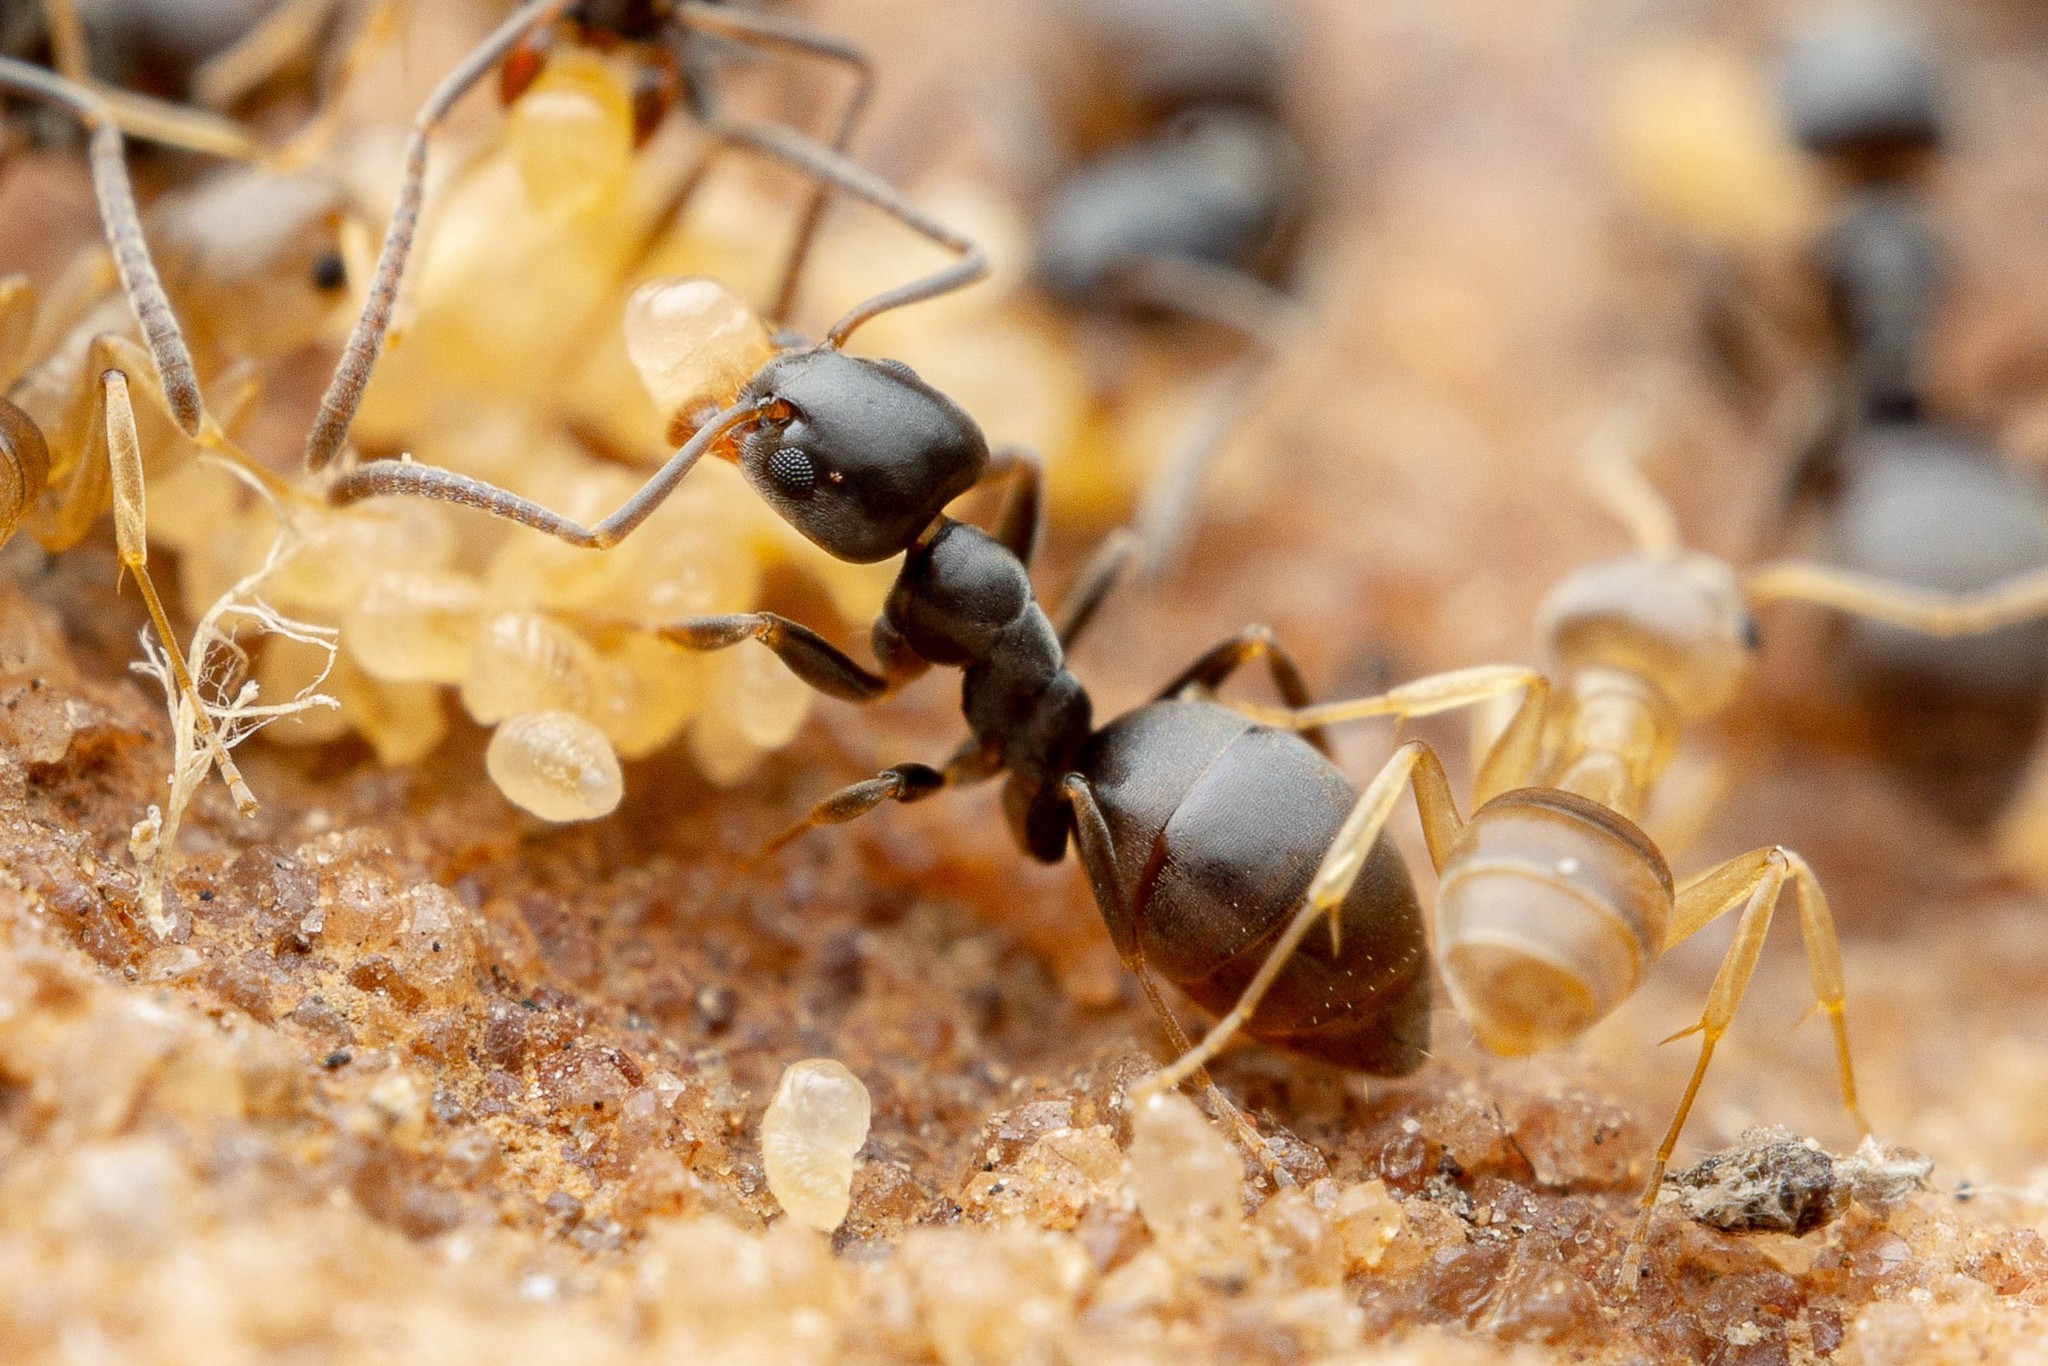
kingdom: Animalia
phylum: Arthropoda
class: Insecta
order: Hymenoptera
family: Formicidae
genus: Tapinoma
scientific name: Tapinoma sessile
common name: Odorous house ant
